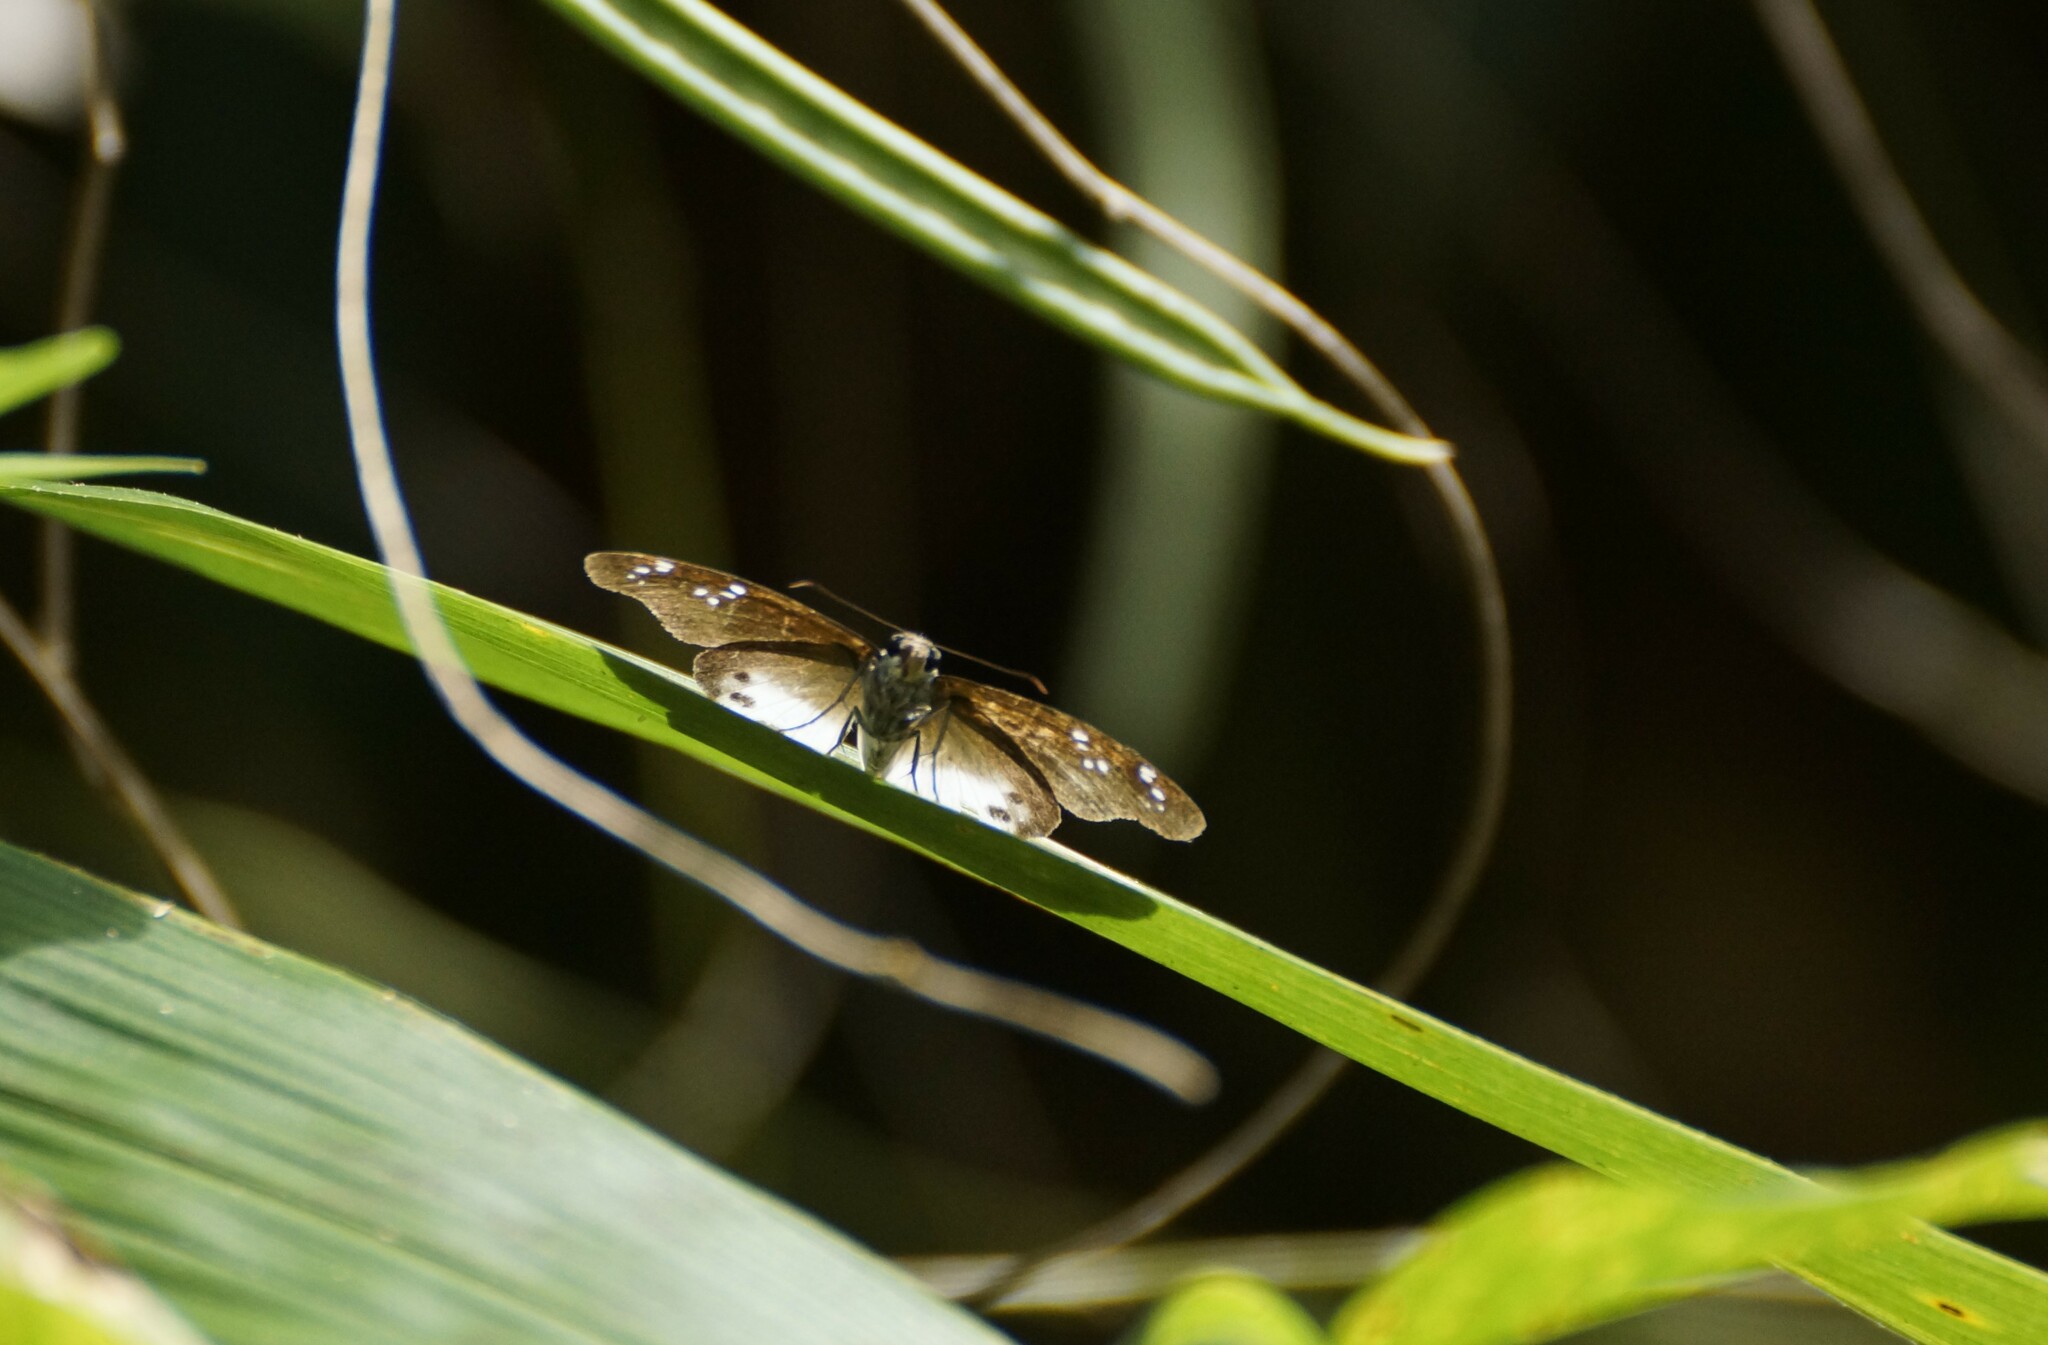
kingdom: Animalia
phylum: Arthropoda
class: Insecta
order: Lepidoptera
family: Hesperiidae
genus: Tagiades
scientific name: Tagiades japetus
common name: Pied flat
